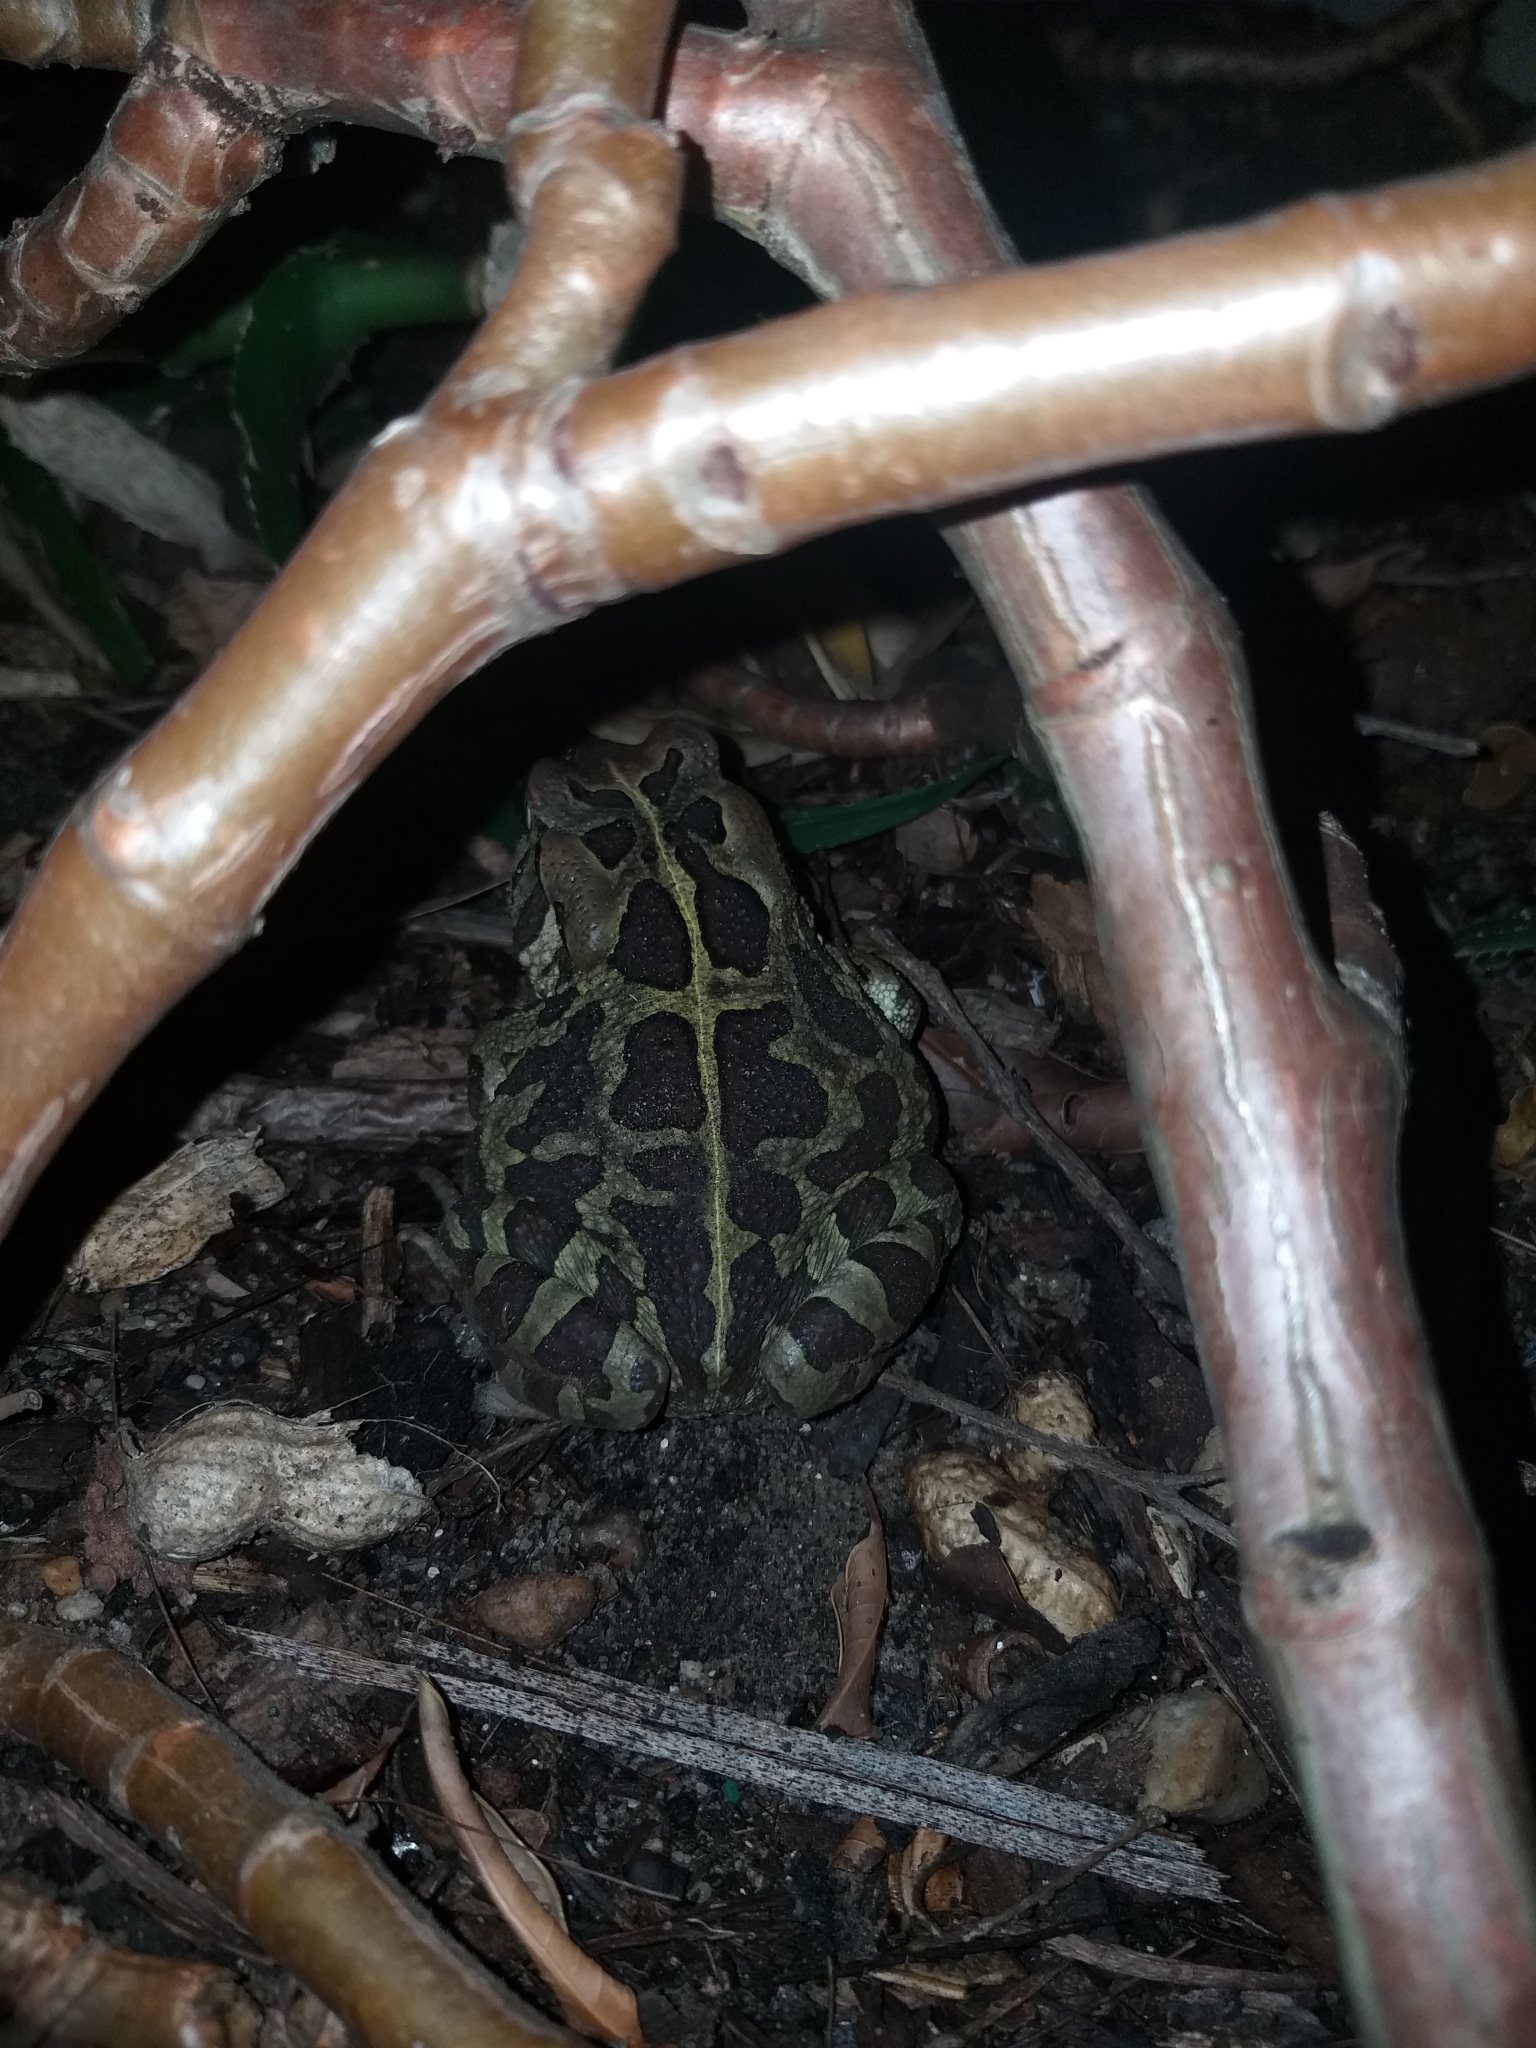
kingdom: Animalia
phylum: Chordata
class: Amphibia
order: Anura
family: Bufonidae
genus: Sclerophrys
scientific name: Sclerophrys pantherina
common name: Panther toad
